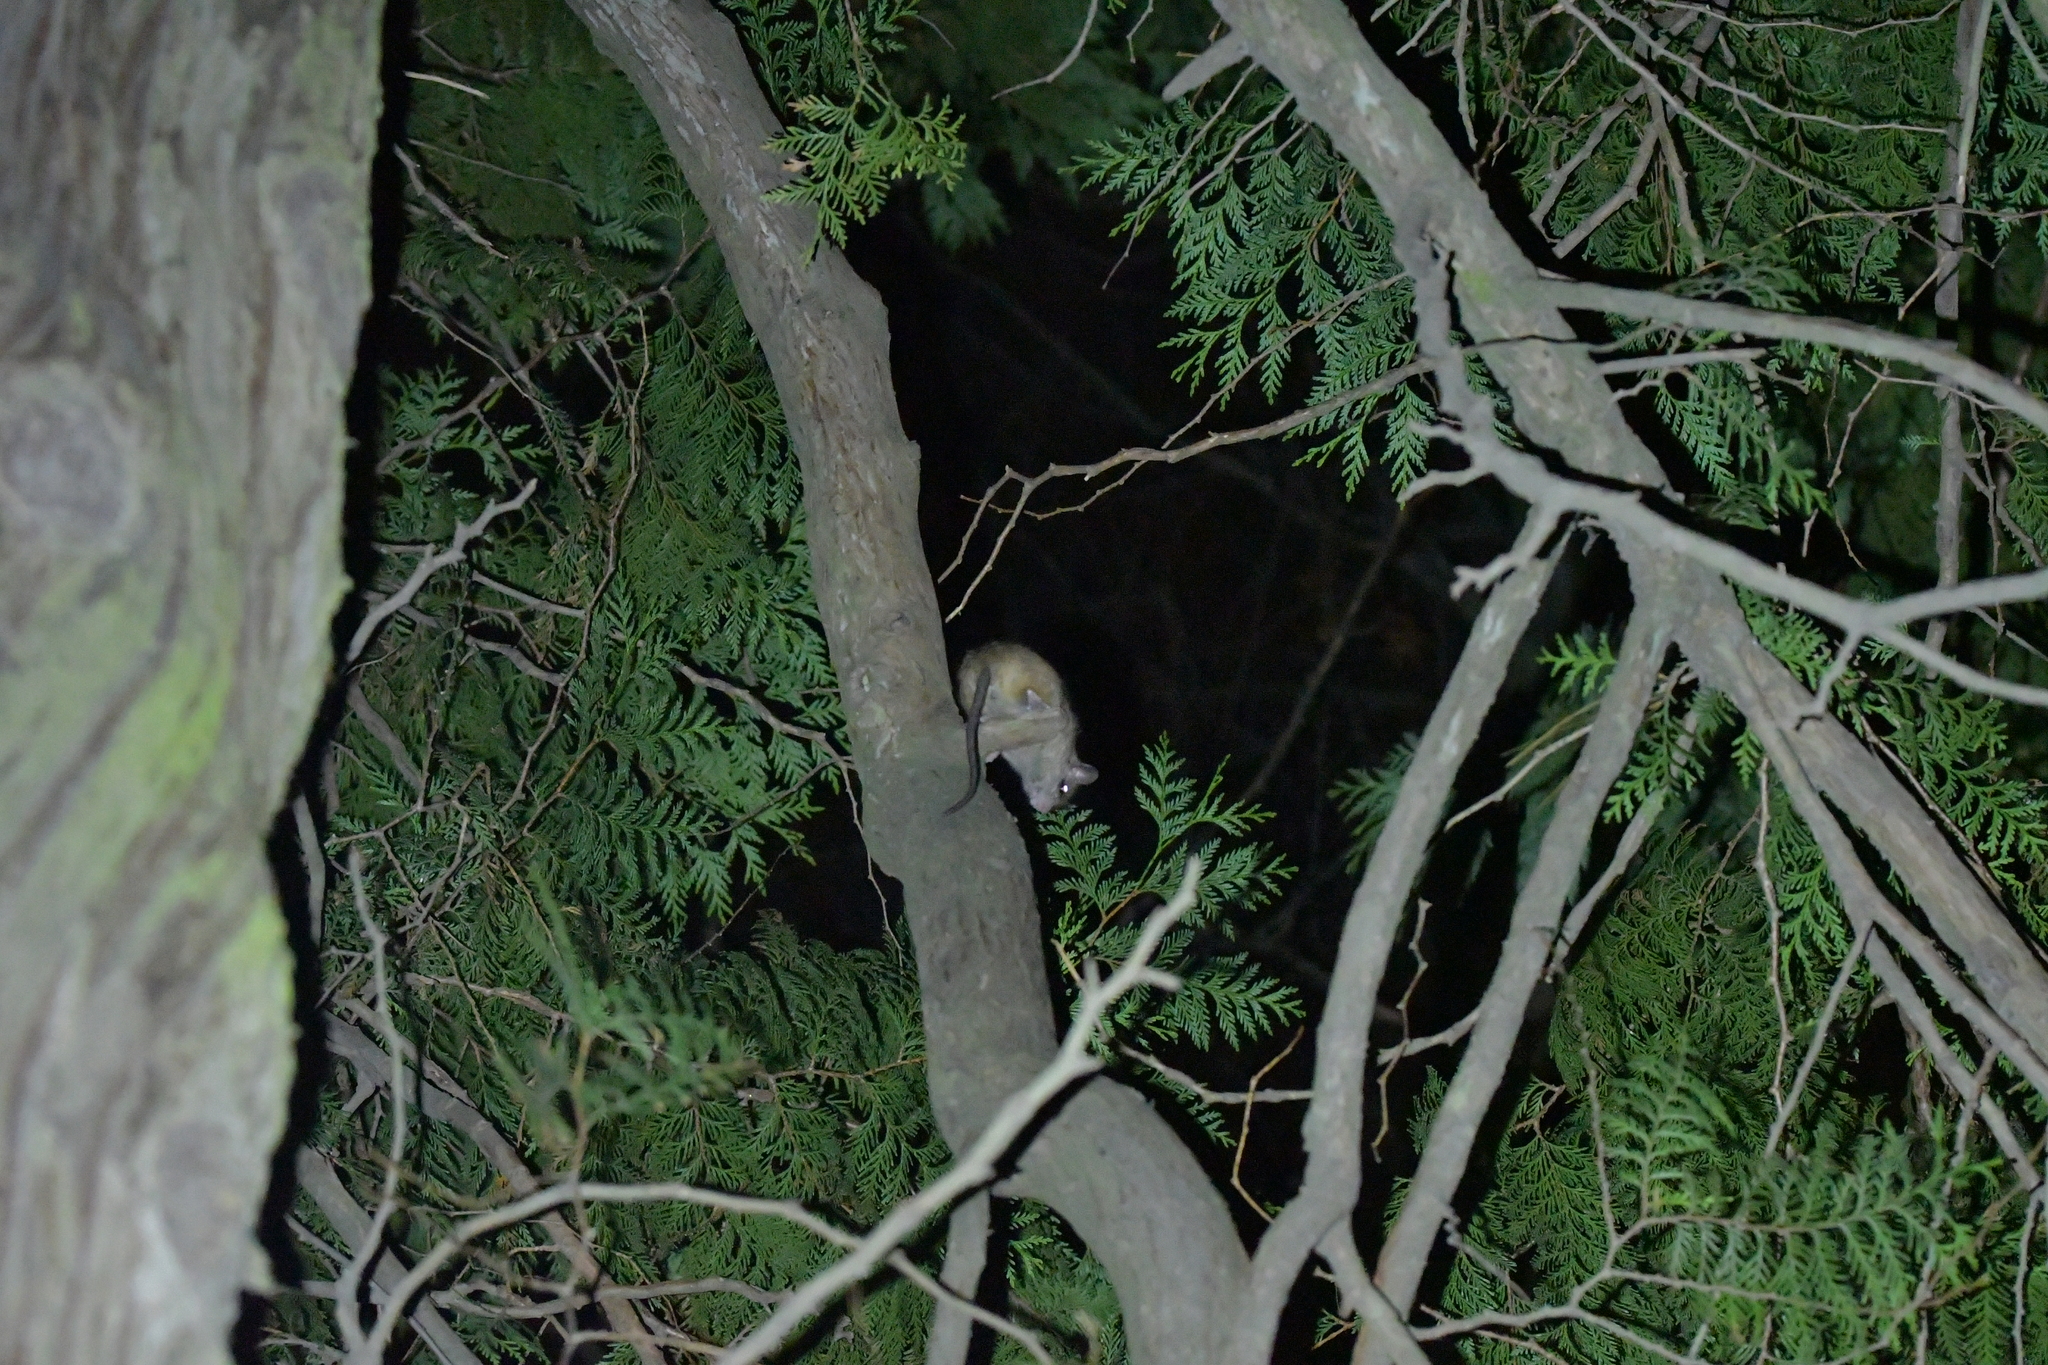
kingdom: Animalia
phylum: Chordata
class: Mammalia
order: Rodentia
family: Muridae
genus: Rattus
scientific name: Rattus rattus
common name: Black rat
